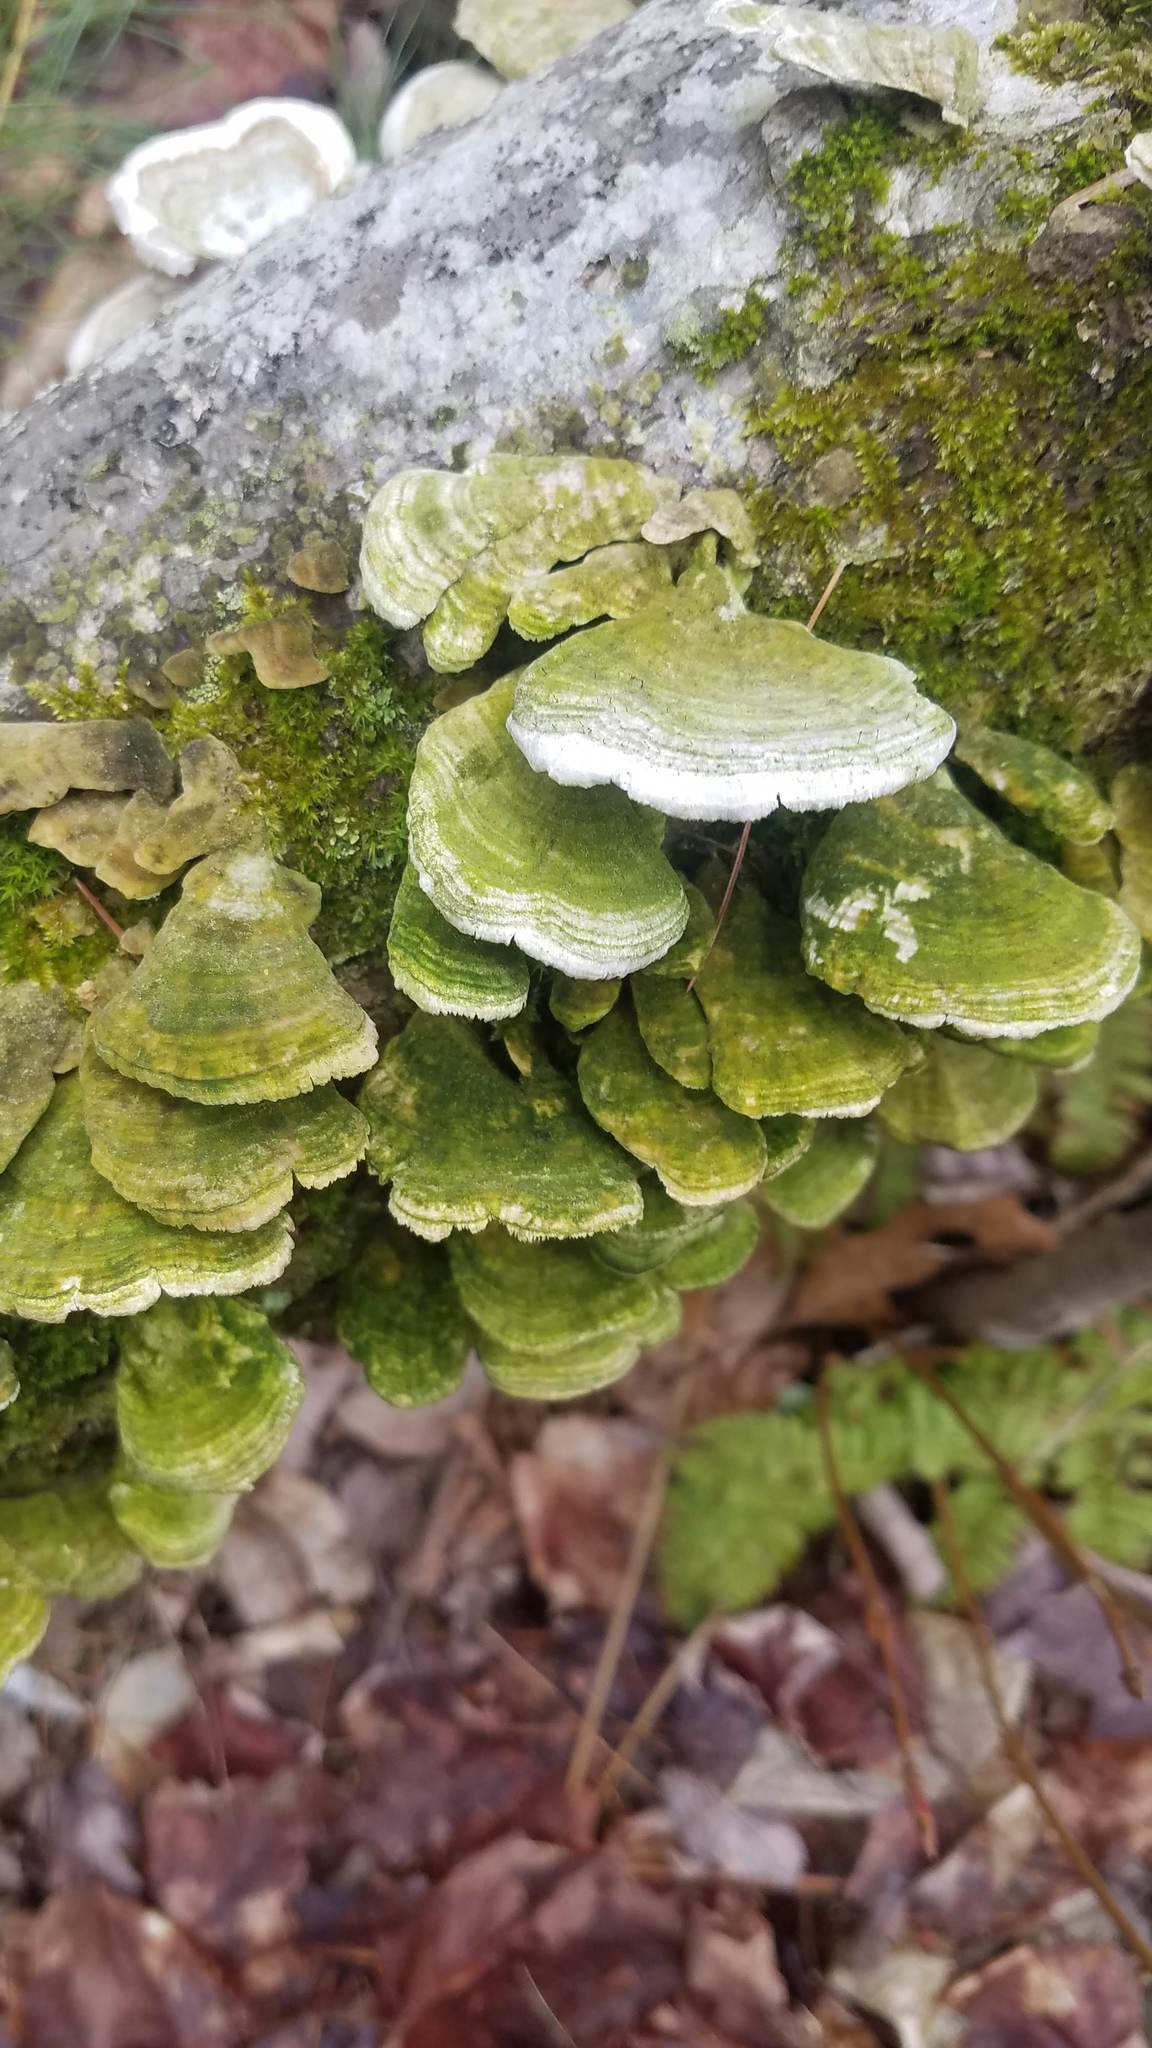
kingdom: Fungi
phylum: Ascomycota
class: Eurotiomycetes
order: Mycocaliciales
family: Mycocaliciaceae
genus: Phaeocalicium
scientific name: Phaeocalicium polyporaeum
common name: Fairy pins
